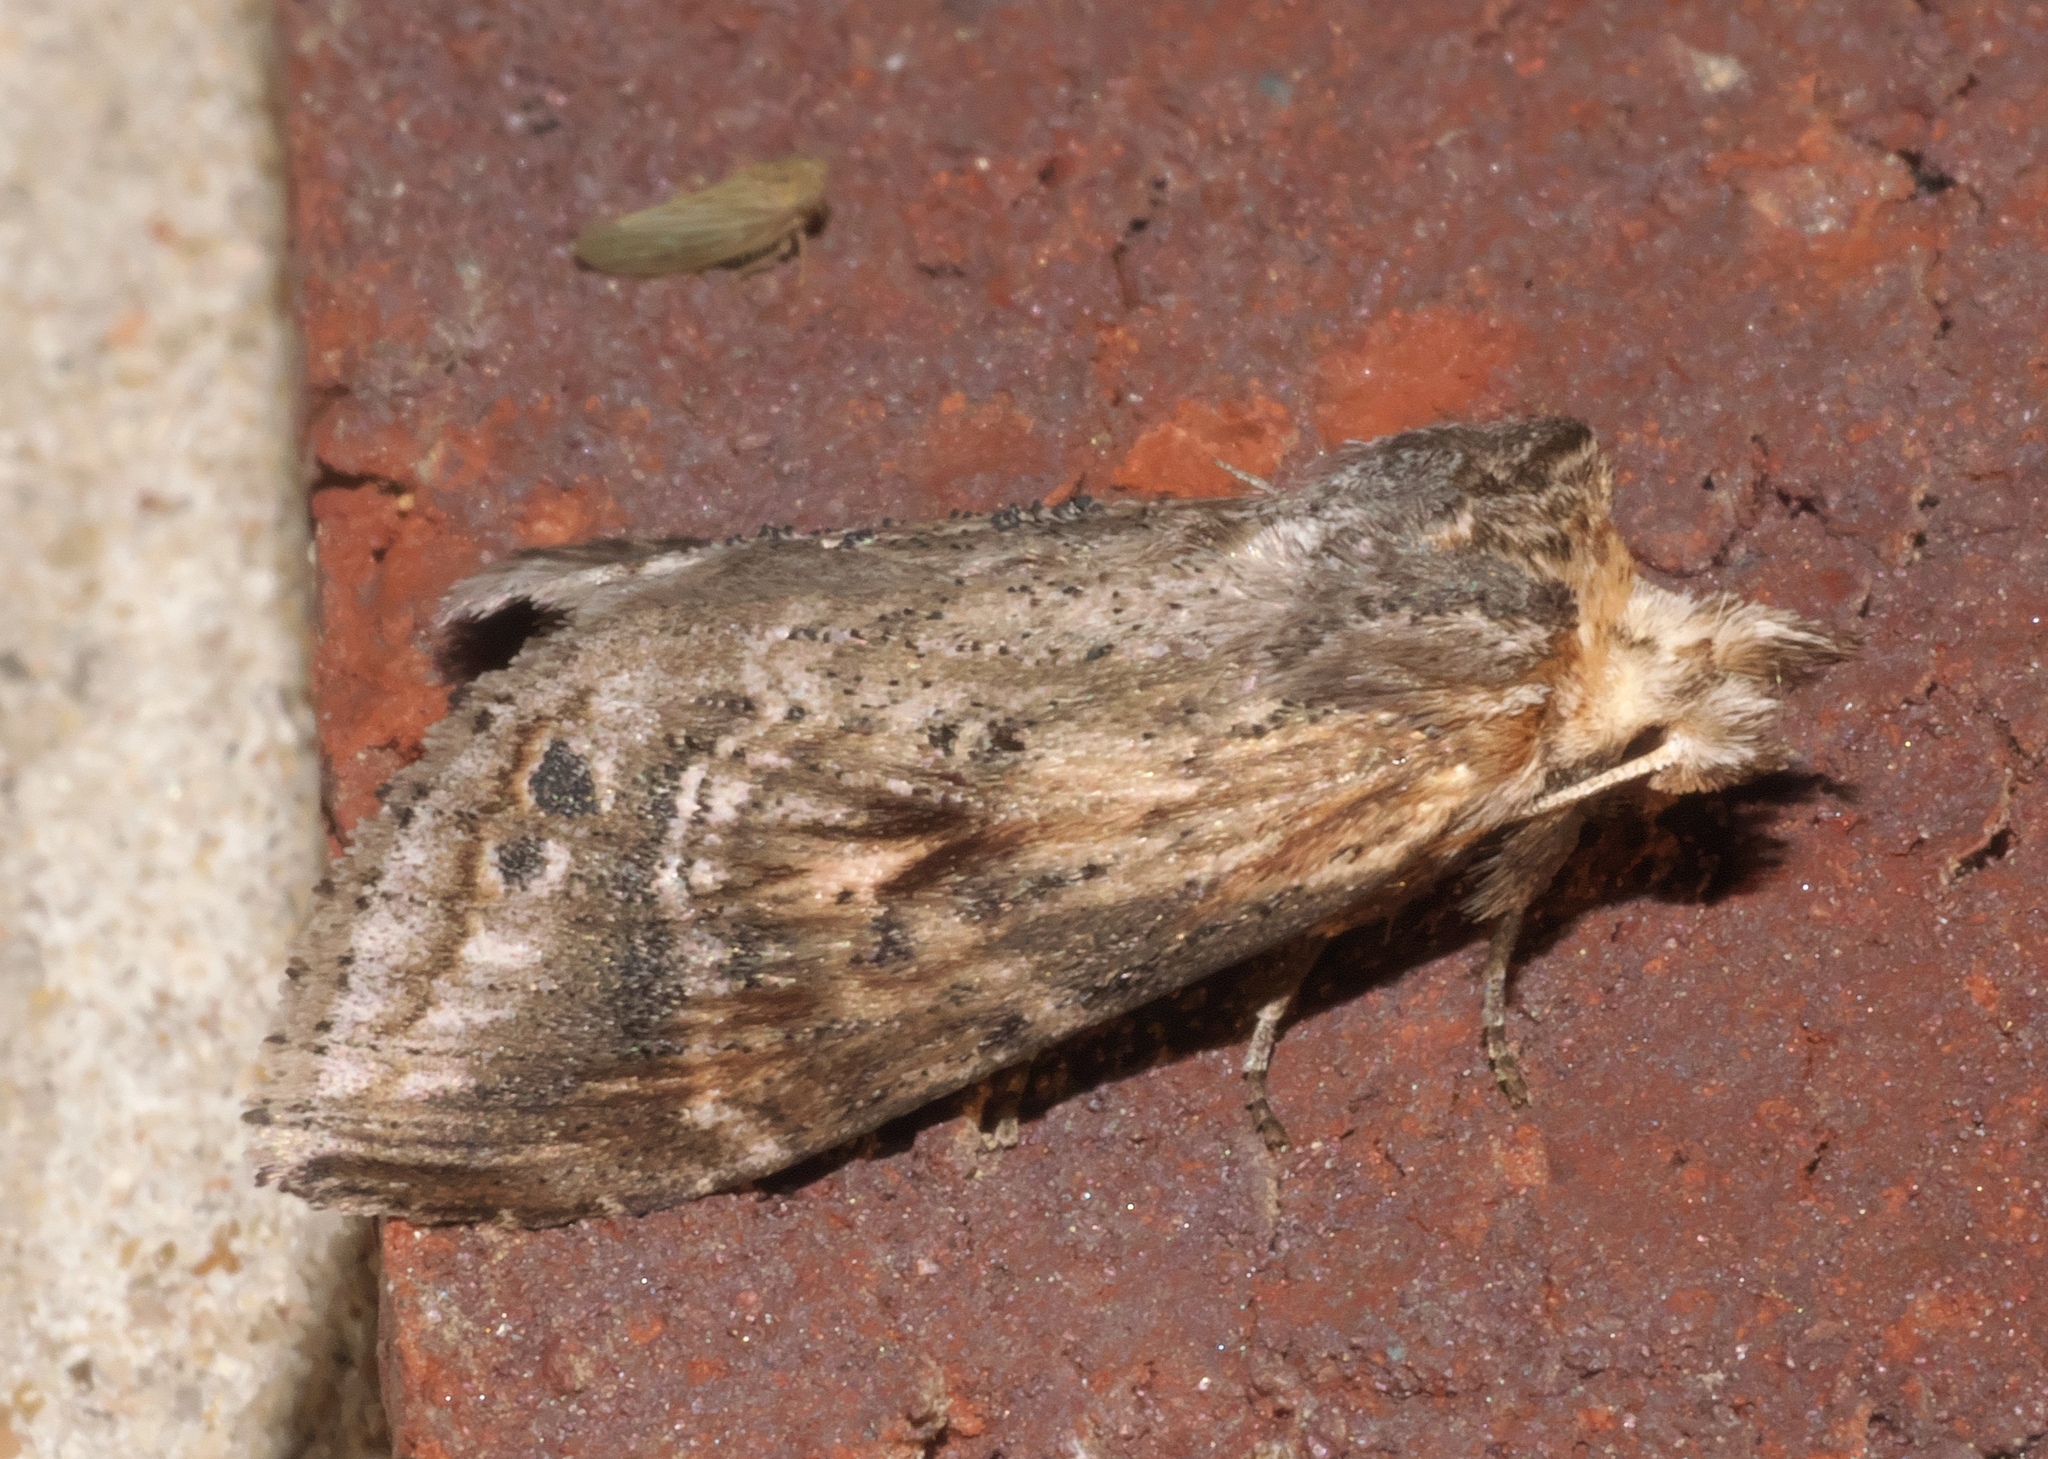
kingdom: Animalia
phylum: Arthropoda
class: Insecta
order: Lepidoptera
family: Notodontidae
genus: Dasylophia
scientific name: Dasylophia anguina
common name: Black-spotted prominent
